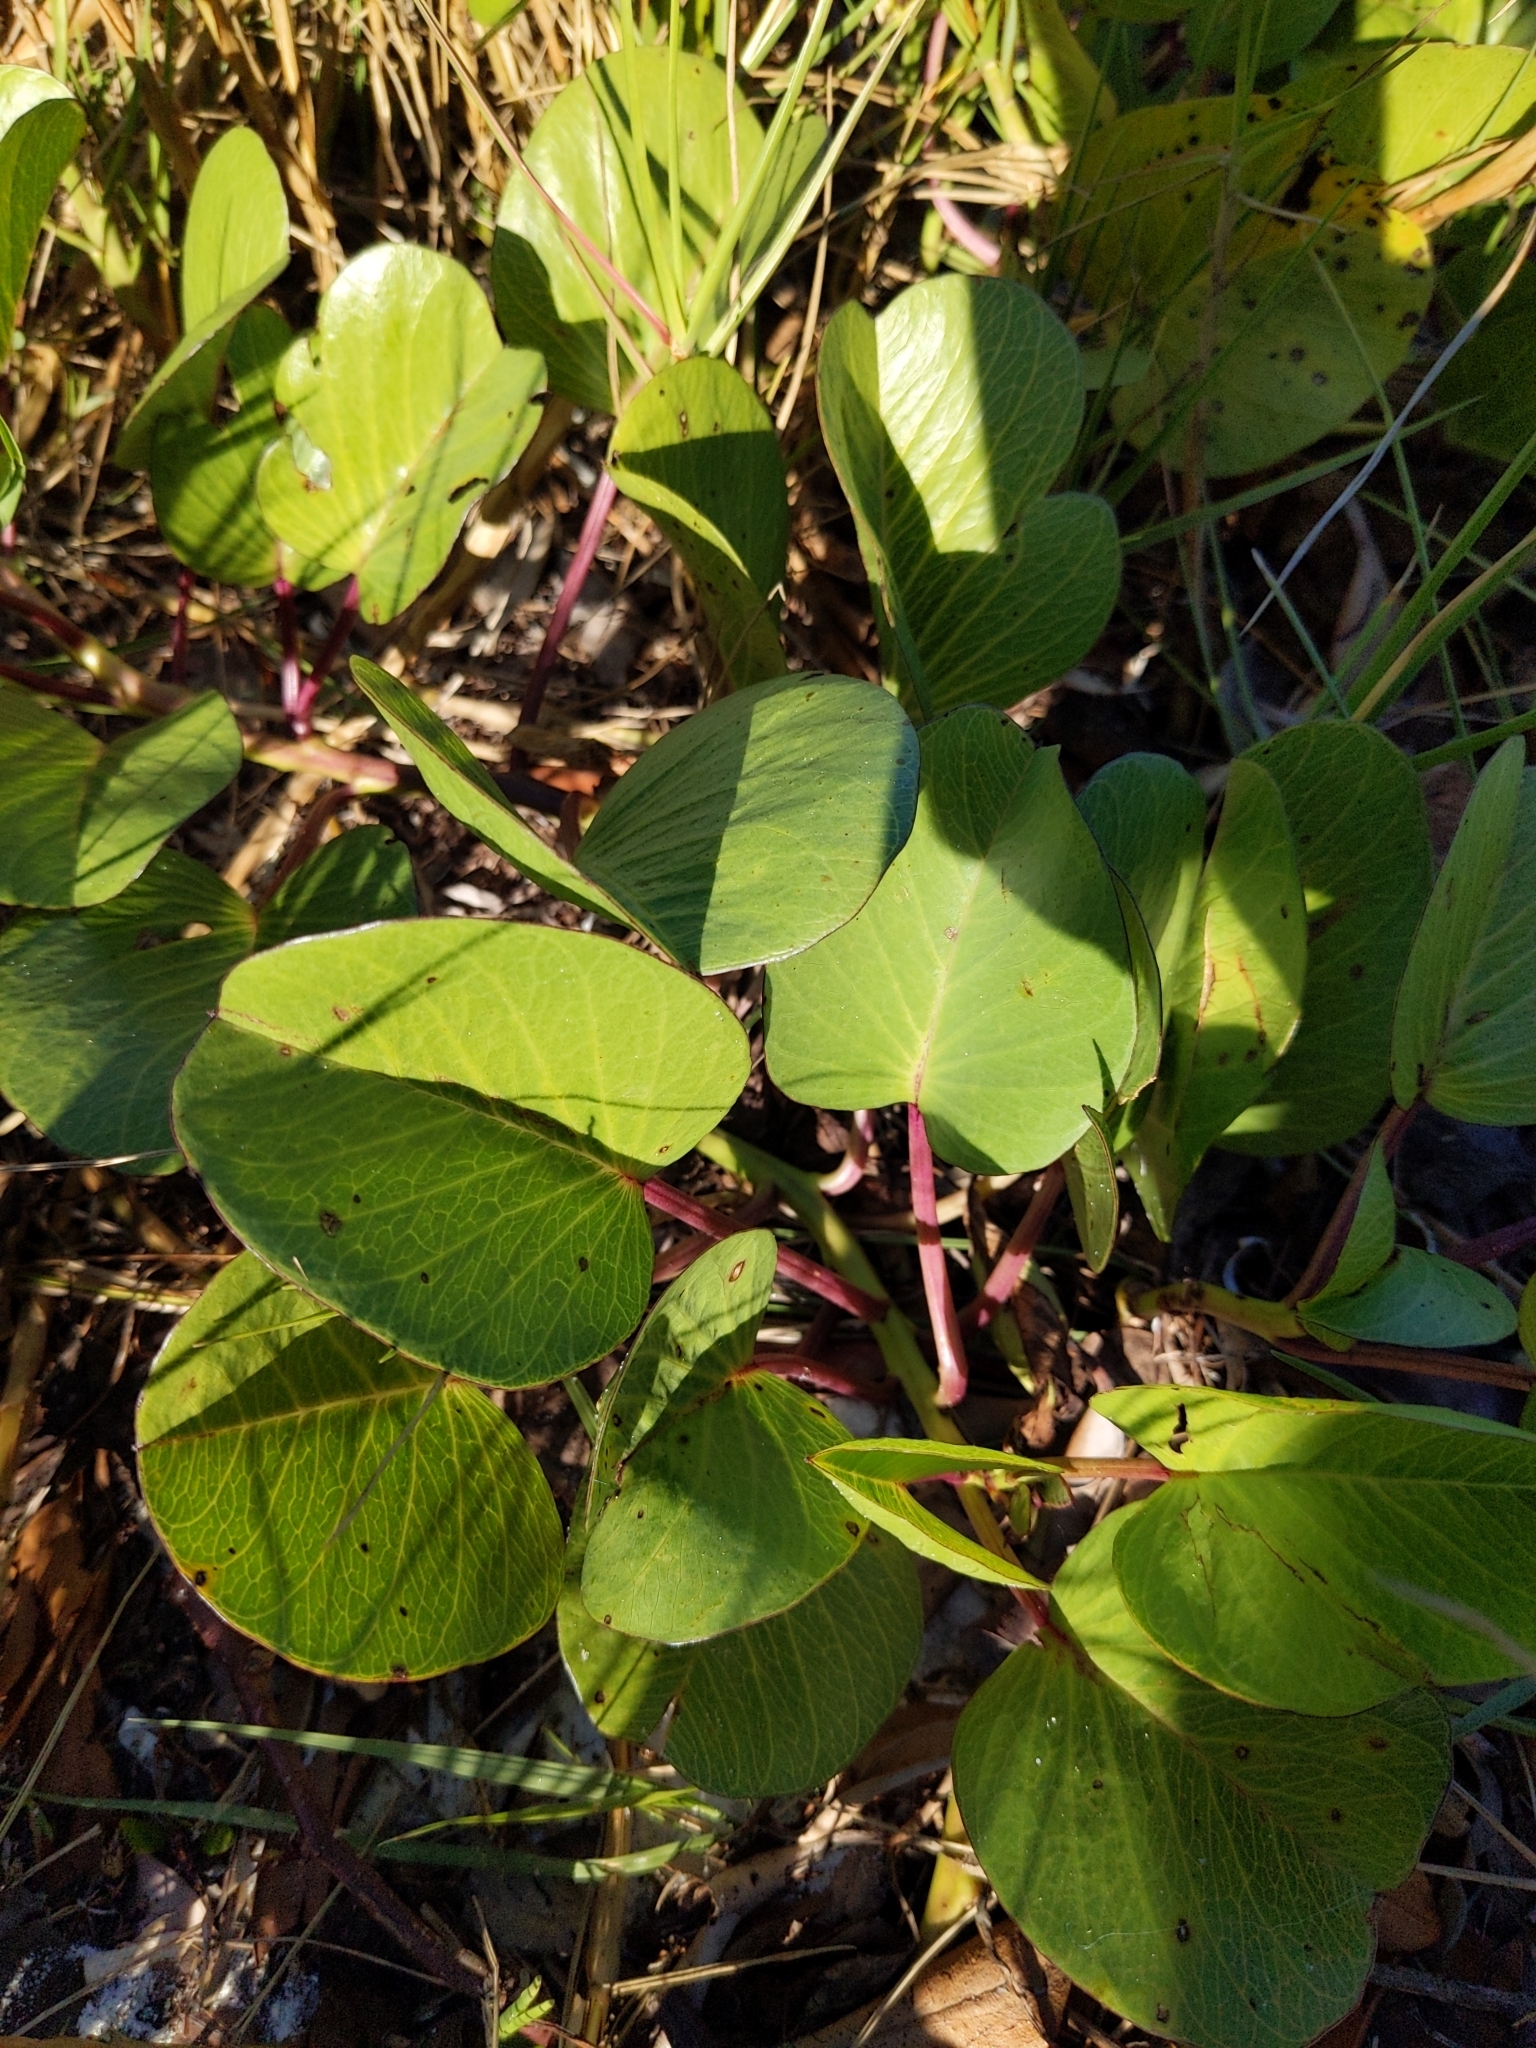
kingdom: Plantae
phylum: Tracheophyta
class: Magnoliopsida
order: Solanales
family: Convolvulaceae
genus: Ipomoea
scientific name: Ipomoea pes-caprae
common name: Beach morning glory
